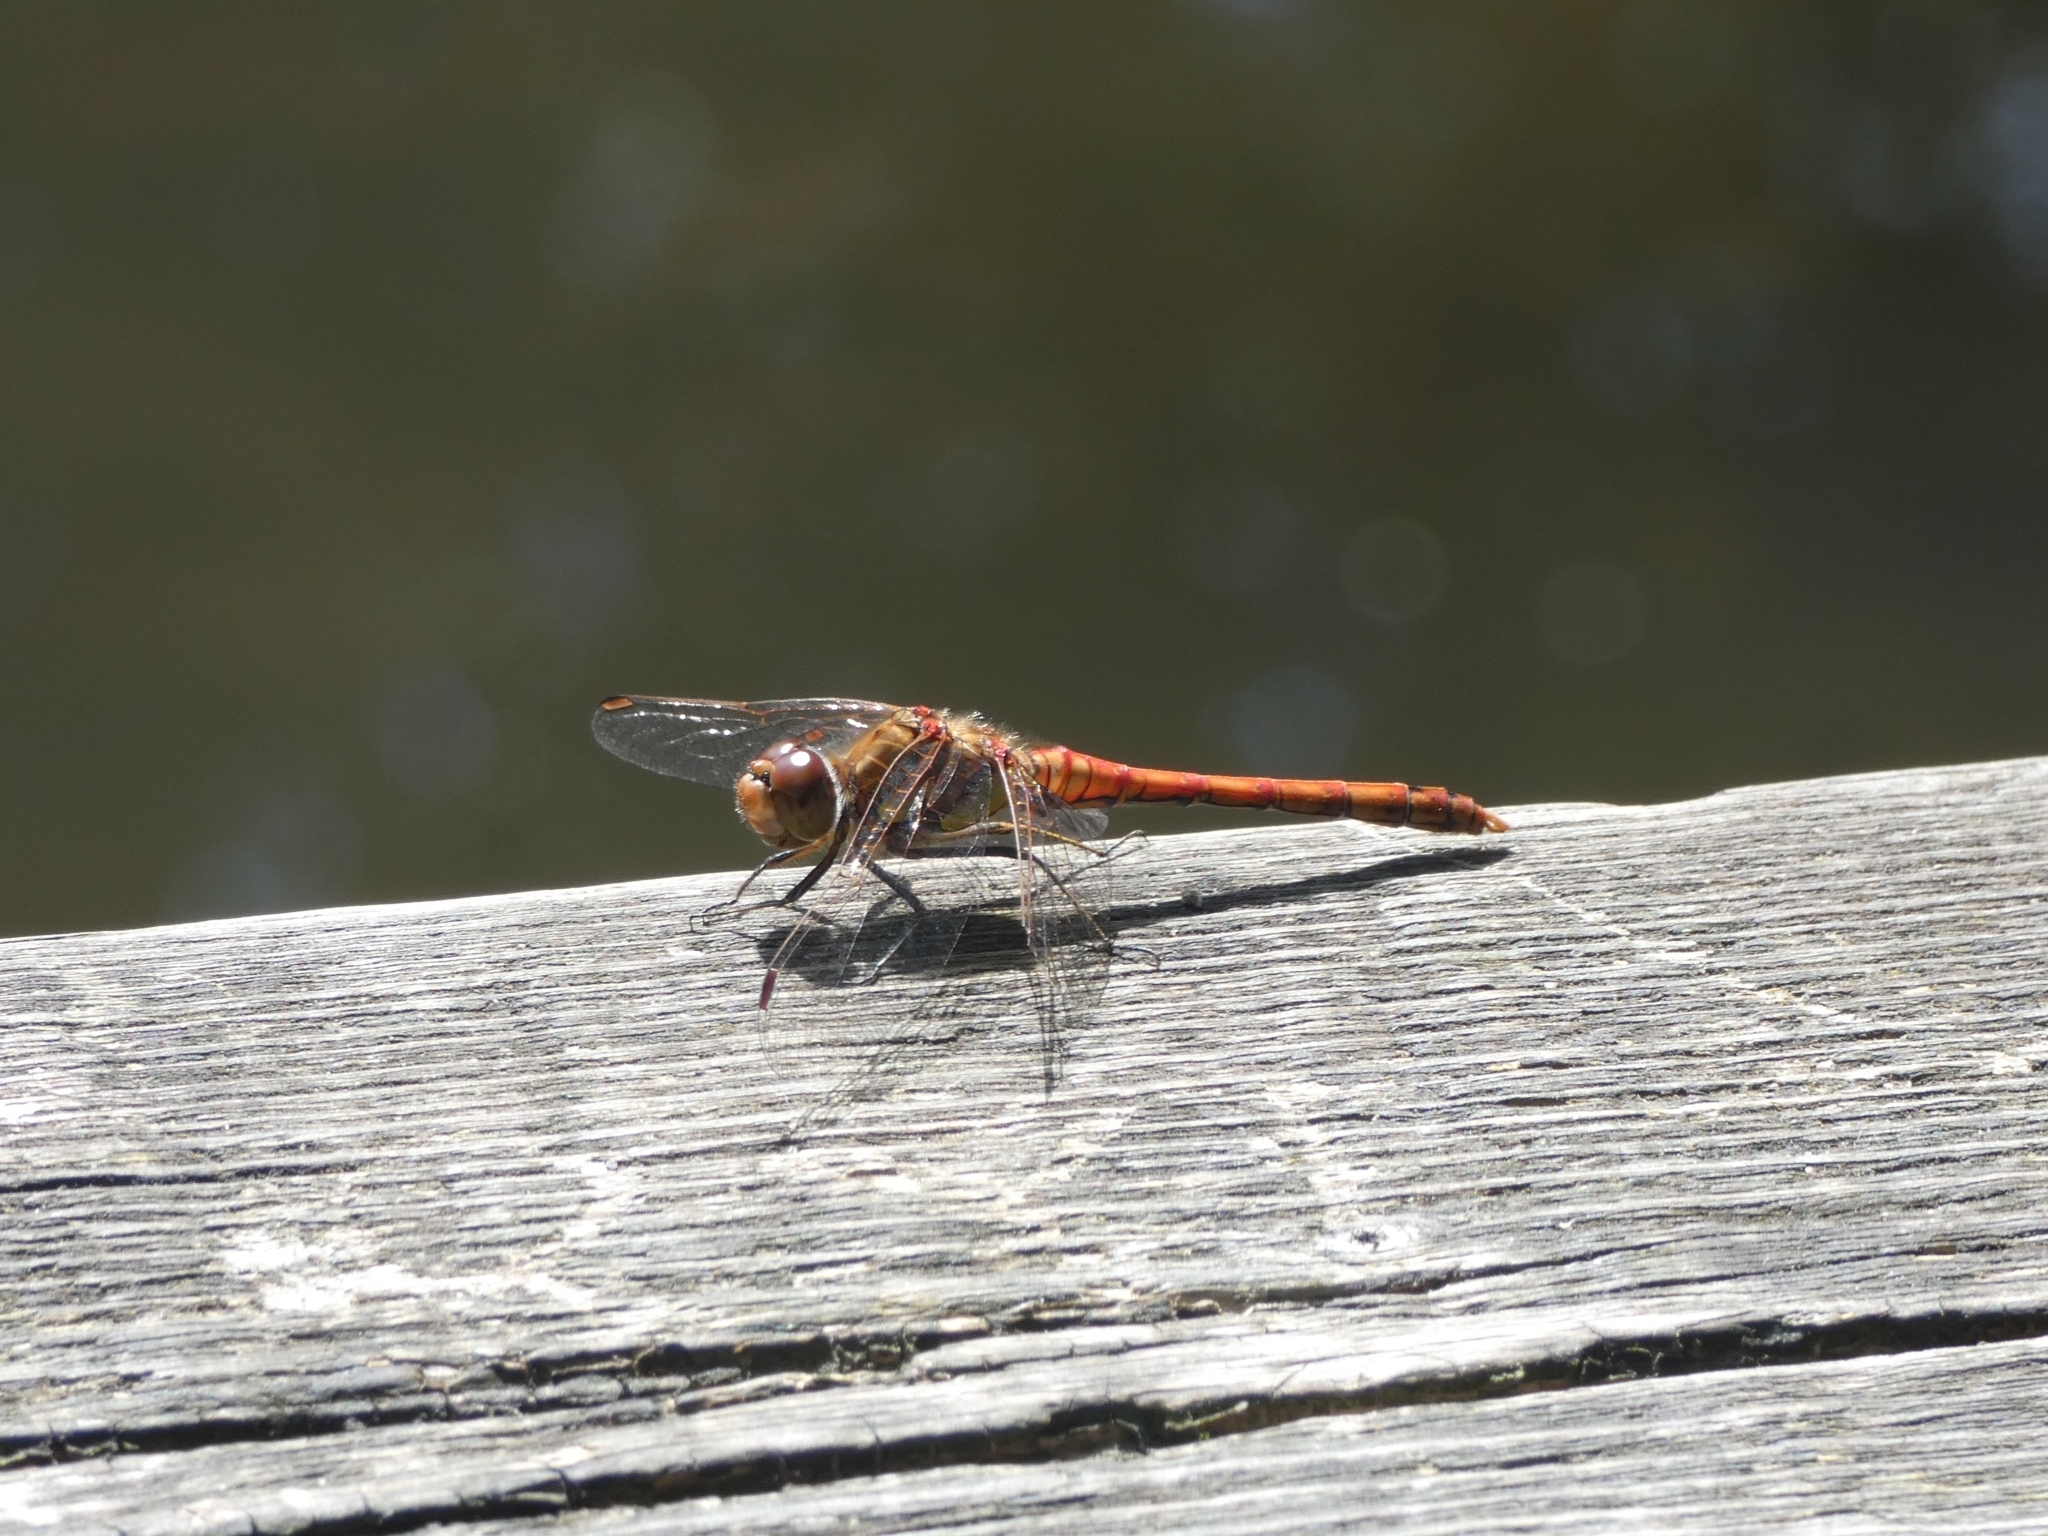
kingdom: Animalia
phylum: Arthropoda
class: Insecta
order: Odonata
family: Libellulidae
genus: Sympetrum
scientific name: Sympetrum striolatum
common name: Common darter
